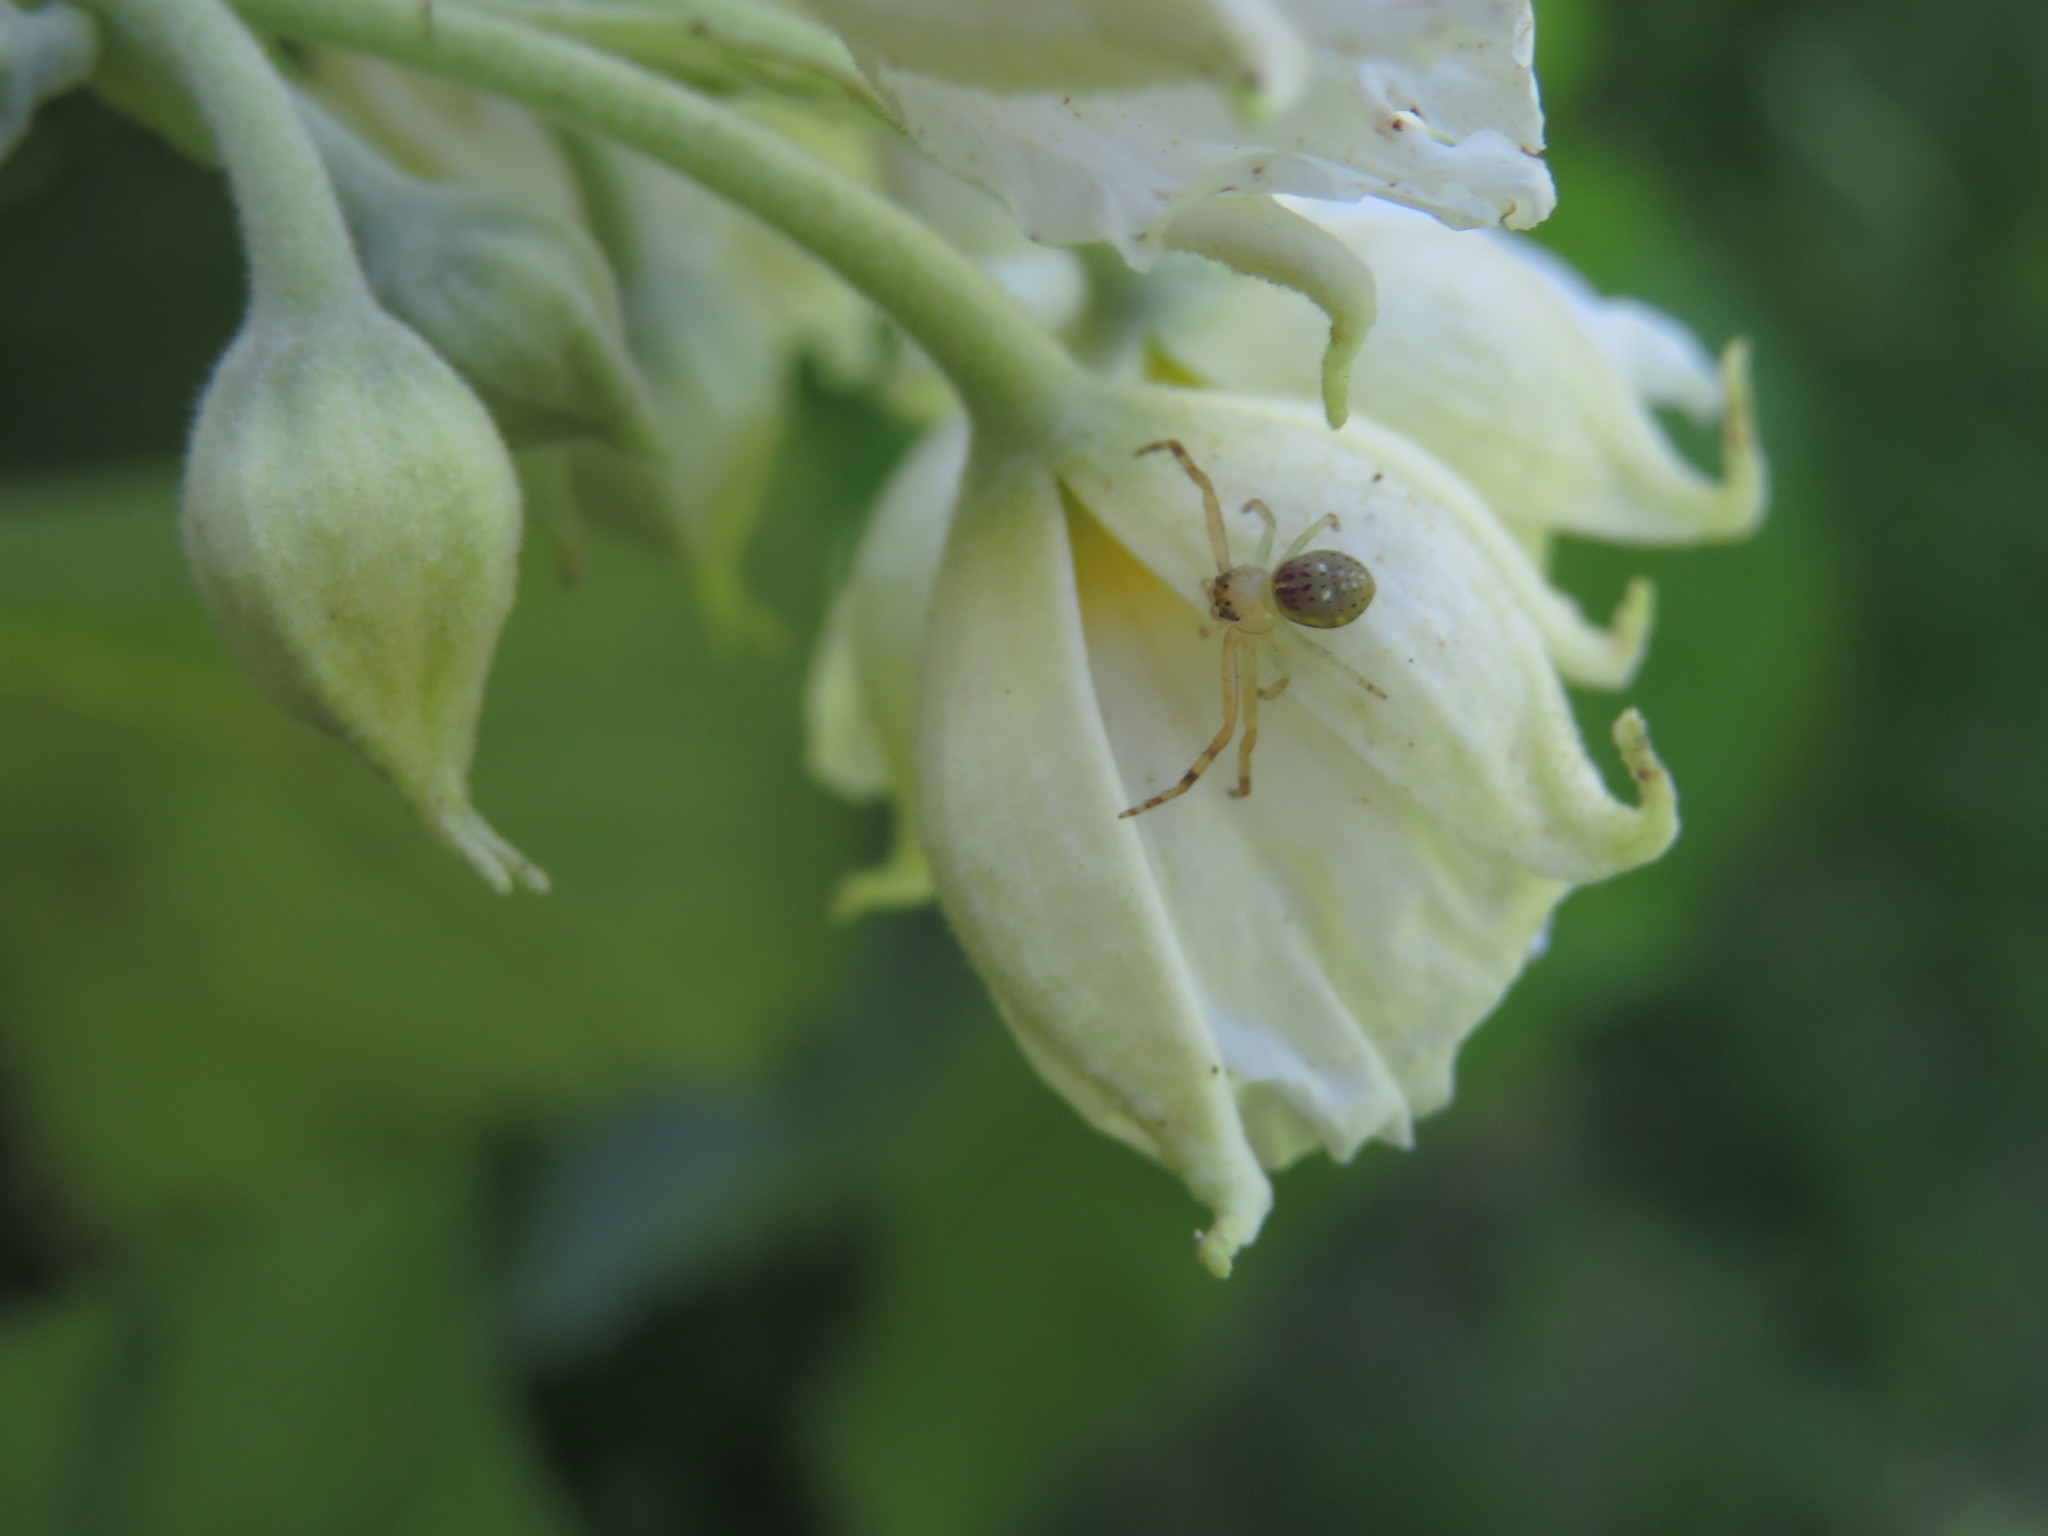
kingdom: Animalia
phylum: Arthropoda
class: Arachnida
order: Araneae
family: Thomisidae
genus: Diaea
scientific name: Diaea ambara
